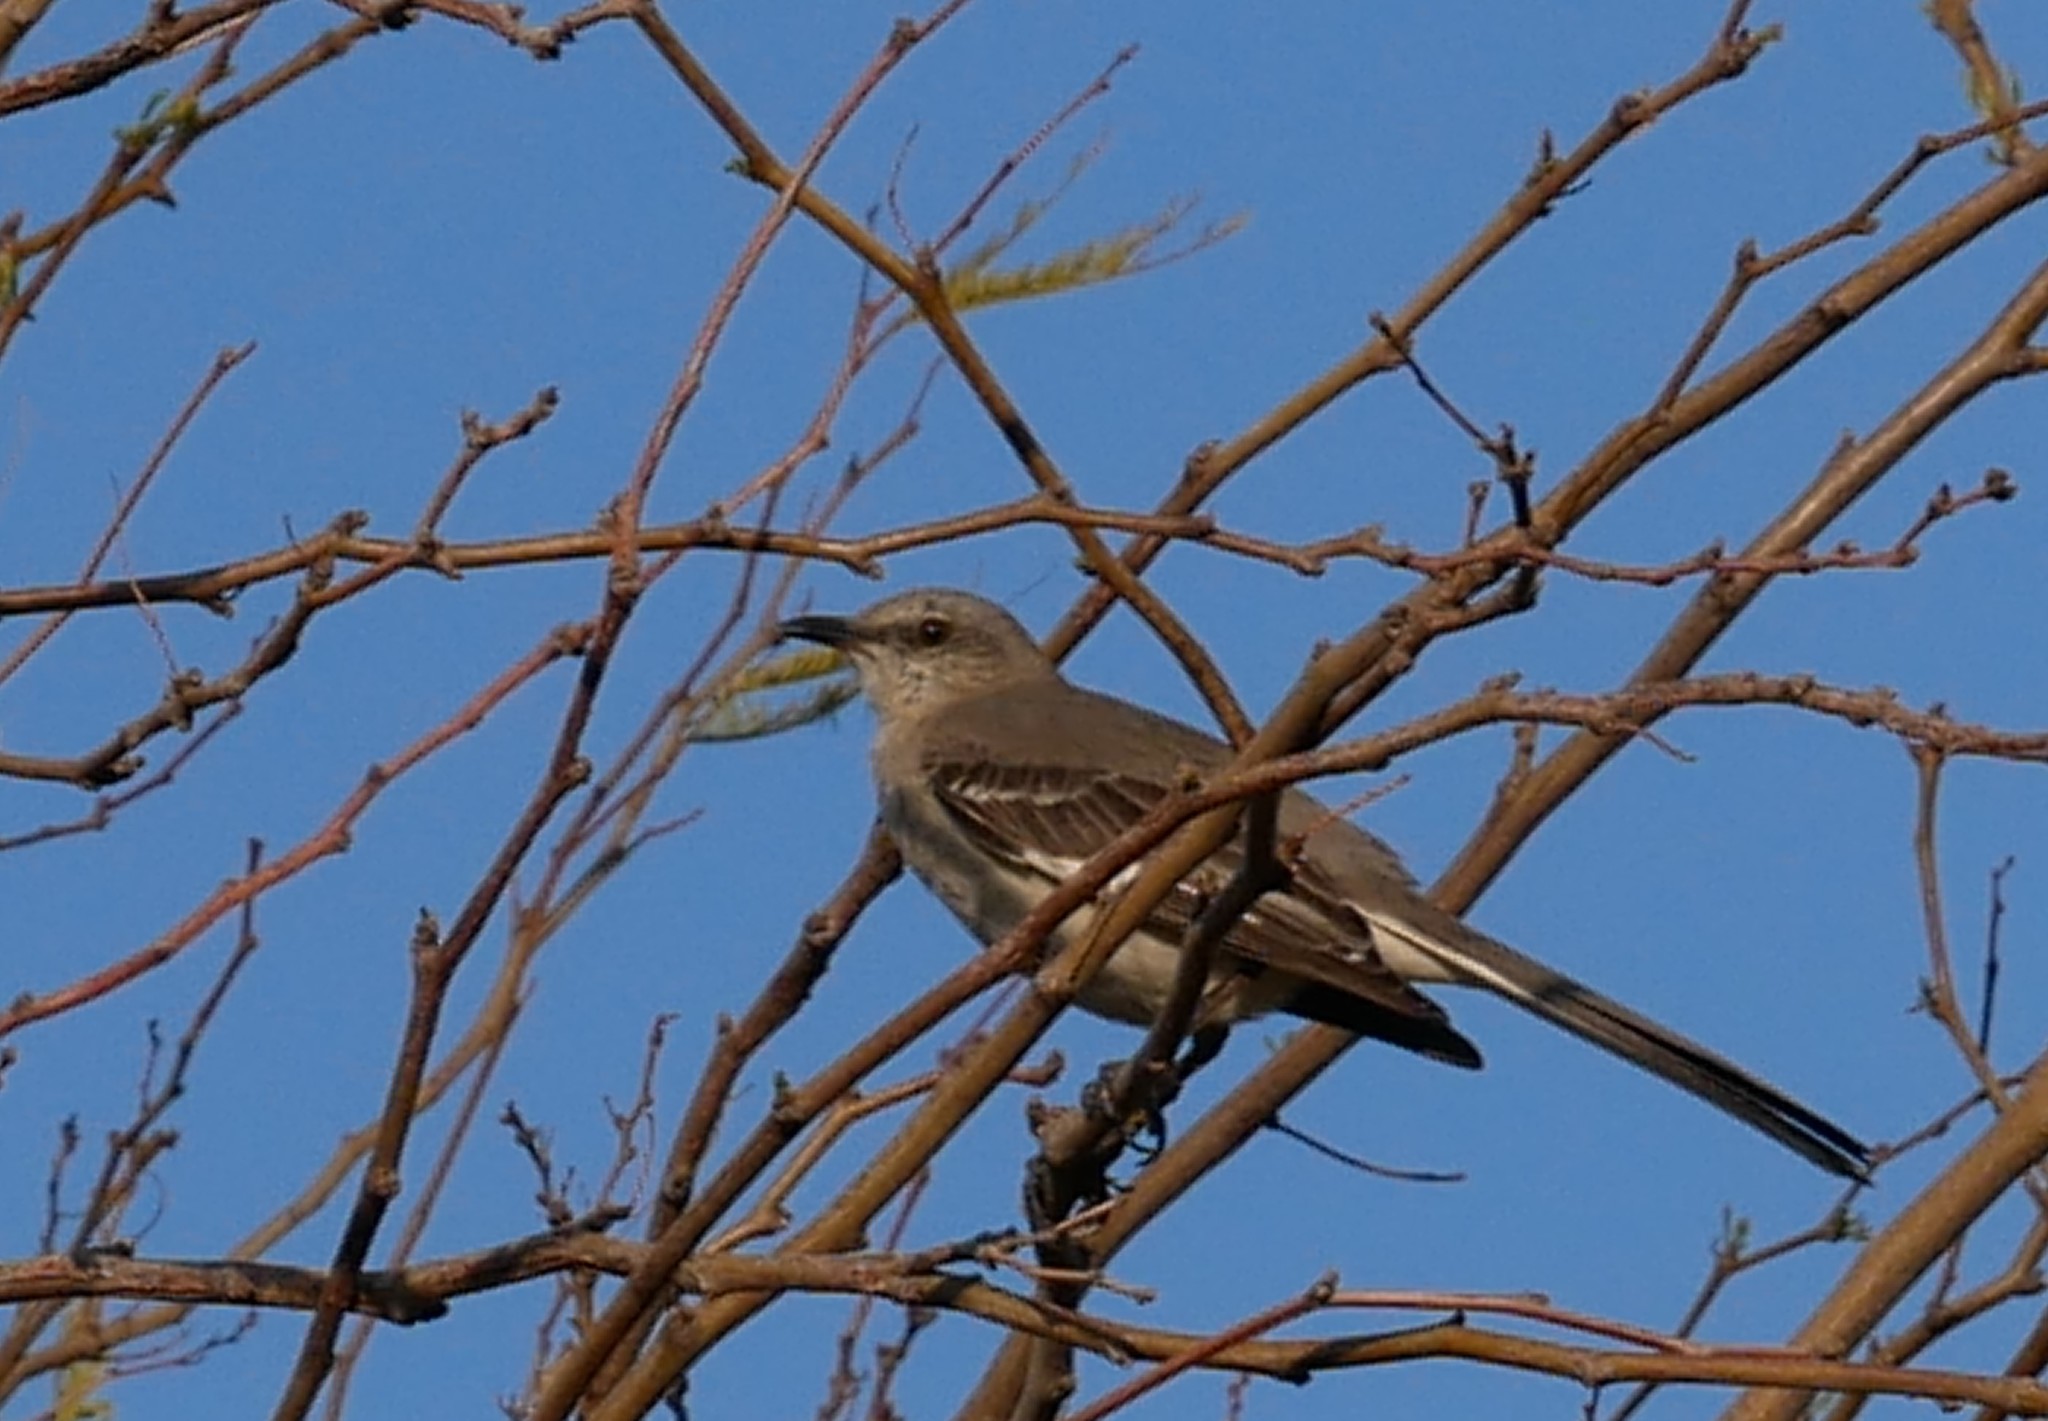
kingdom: Animalia
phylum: Chordata
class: Aves
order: Passeriformes
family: Mimidae
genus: Mimus
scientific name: Mimus polyglottos
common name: Northern mockingbird
